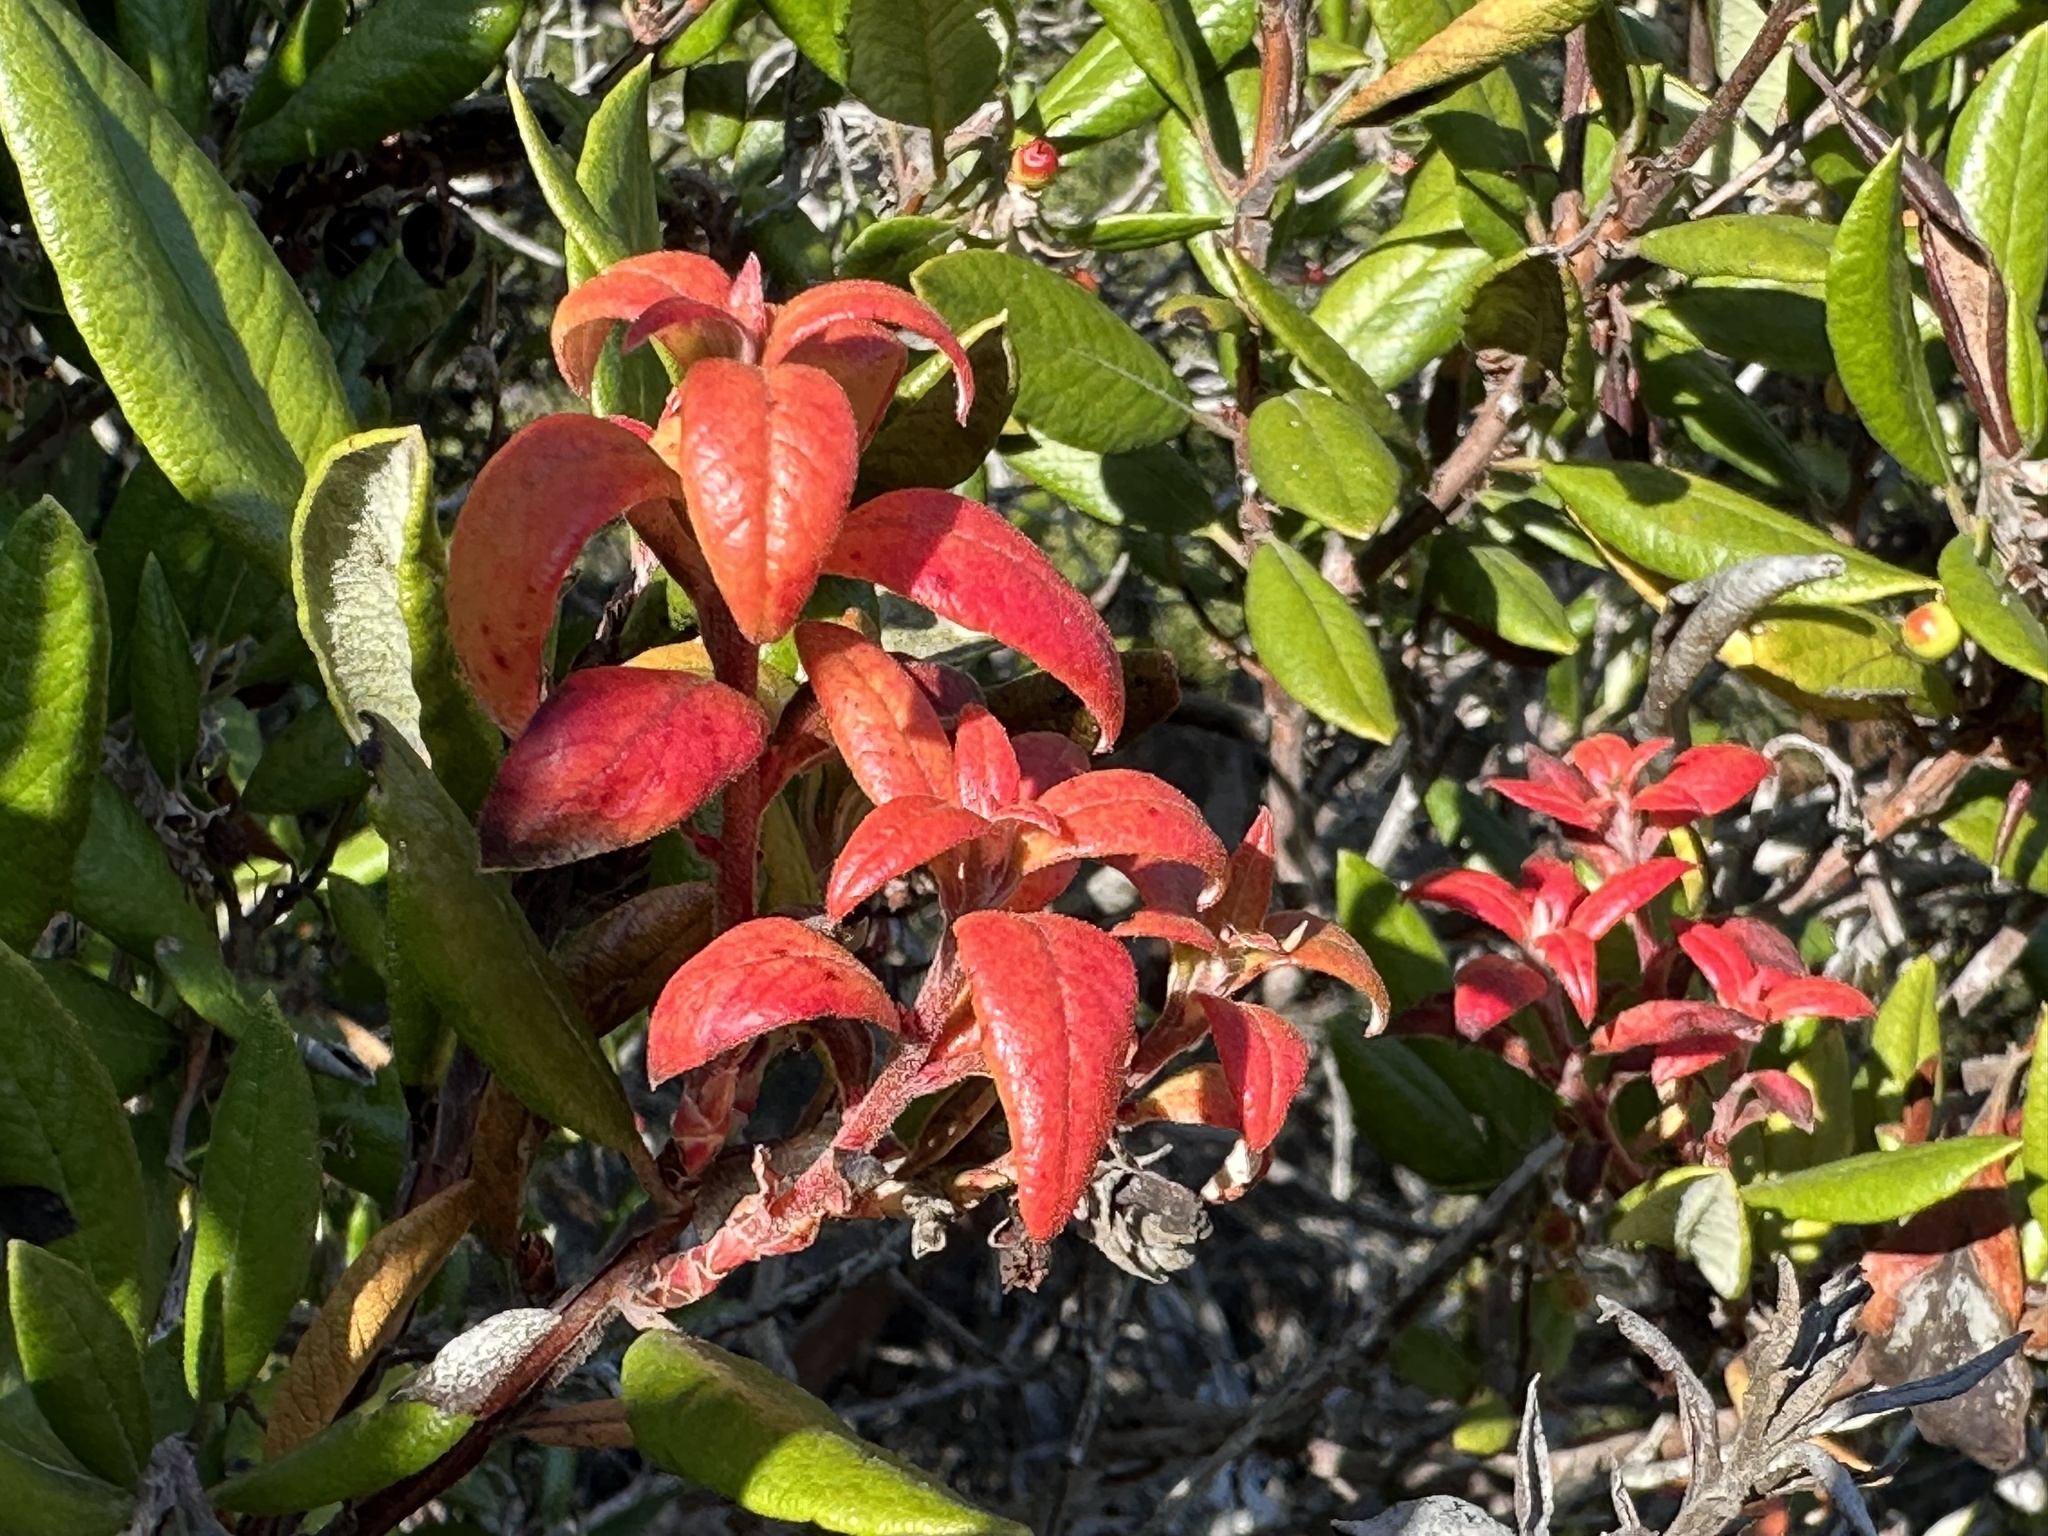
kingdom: Plantae
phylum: Tracheophyta
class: Magnoliopsida
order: Ericales
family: Ericaceae
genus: Arctostaphylos
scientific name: Arctostaphylos bicolor
